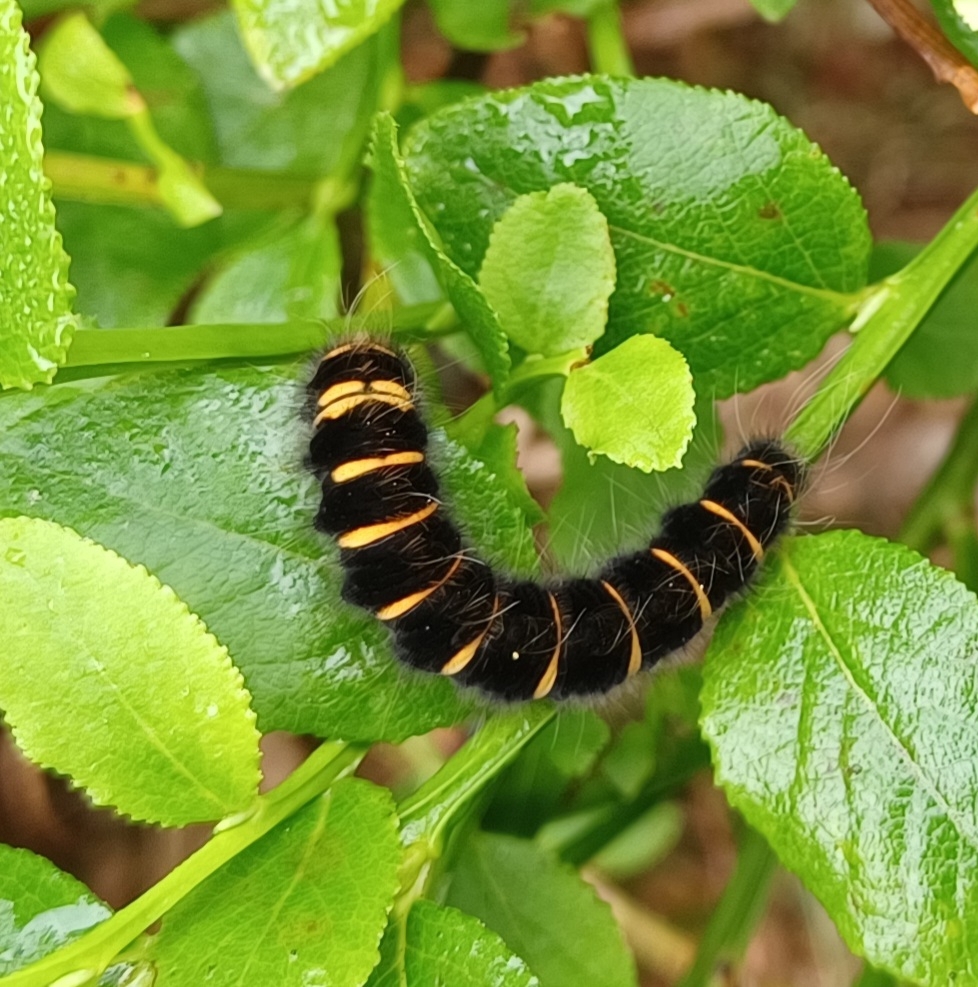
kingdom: Animalia
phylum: Arthropoda
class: Insecta
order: Lepidoptera
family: Lasiocampidae
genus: Macrothylacia
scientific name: Macrothylacia rubi
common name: Fox moth
